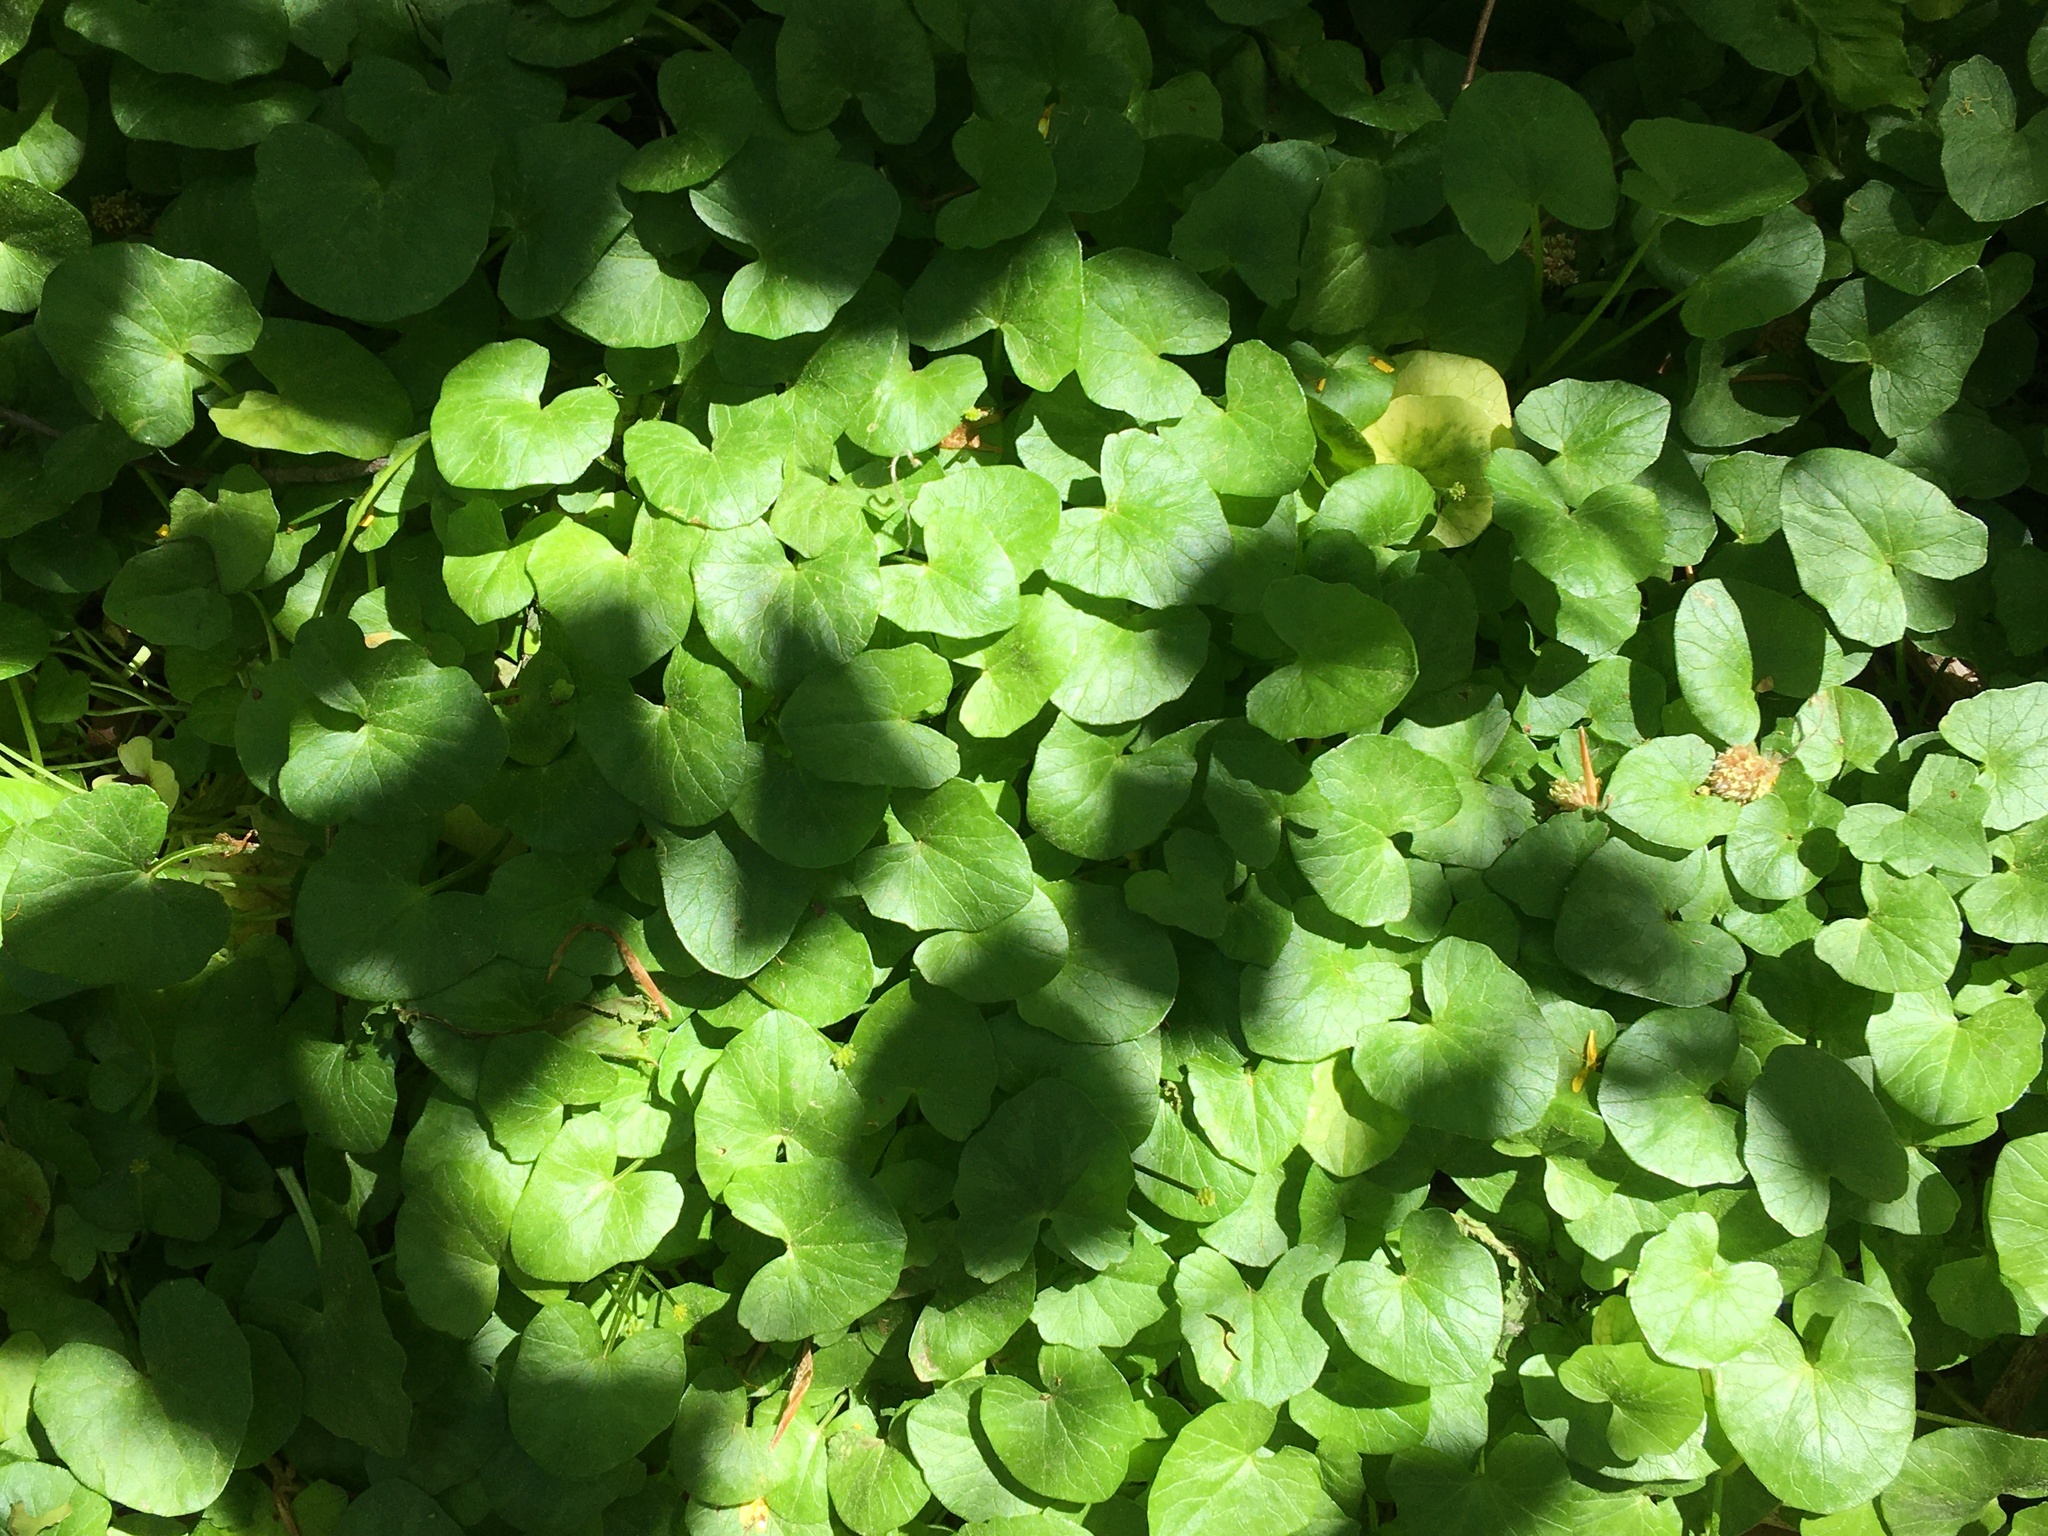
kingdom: Plantae
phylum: Tracheophyta
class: Magnoliopsida
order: Ranunculales
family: Ranunculaceae
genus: Ficaria
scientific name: Ficaria verna
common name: Lesser celandine
